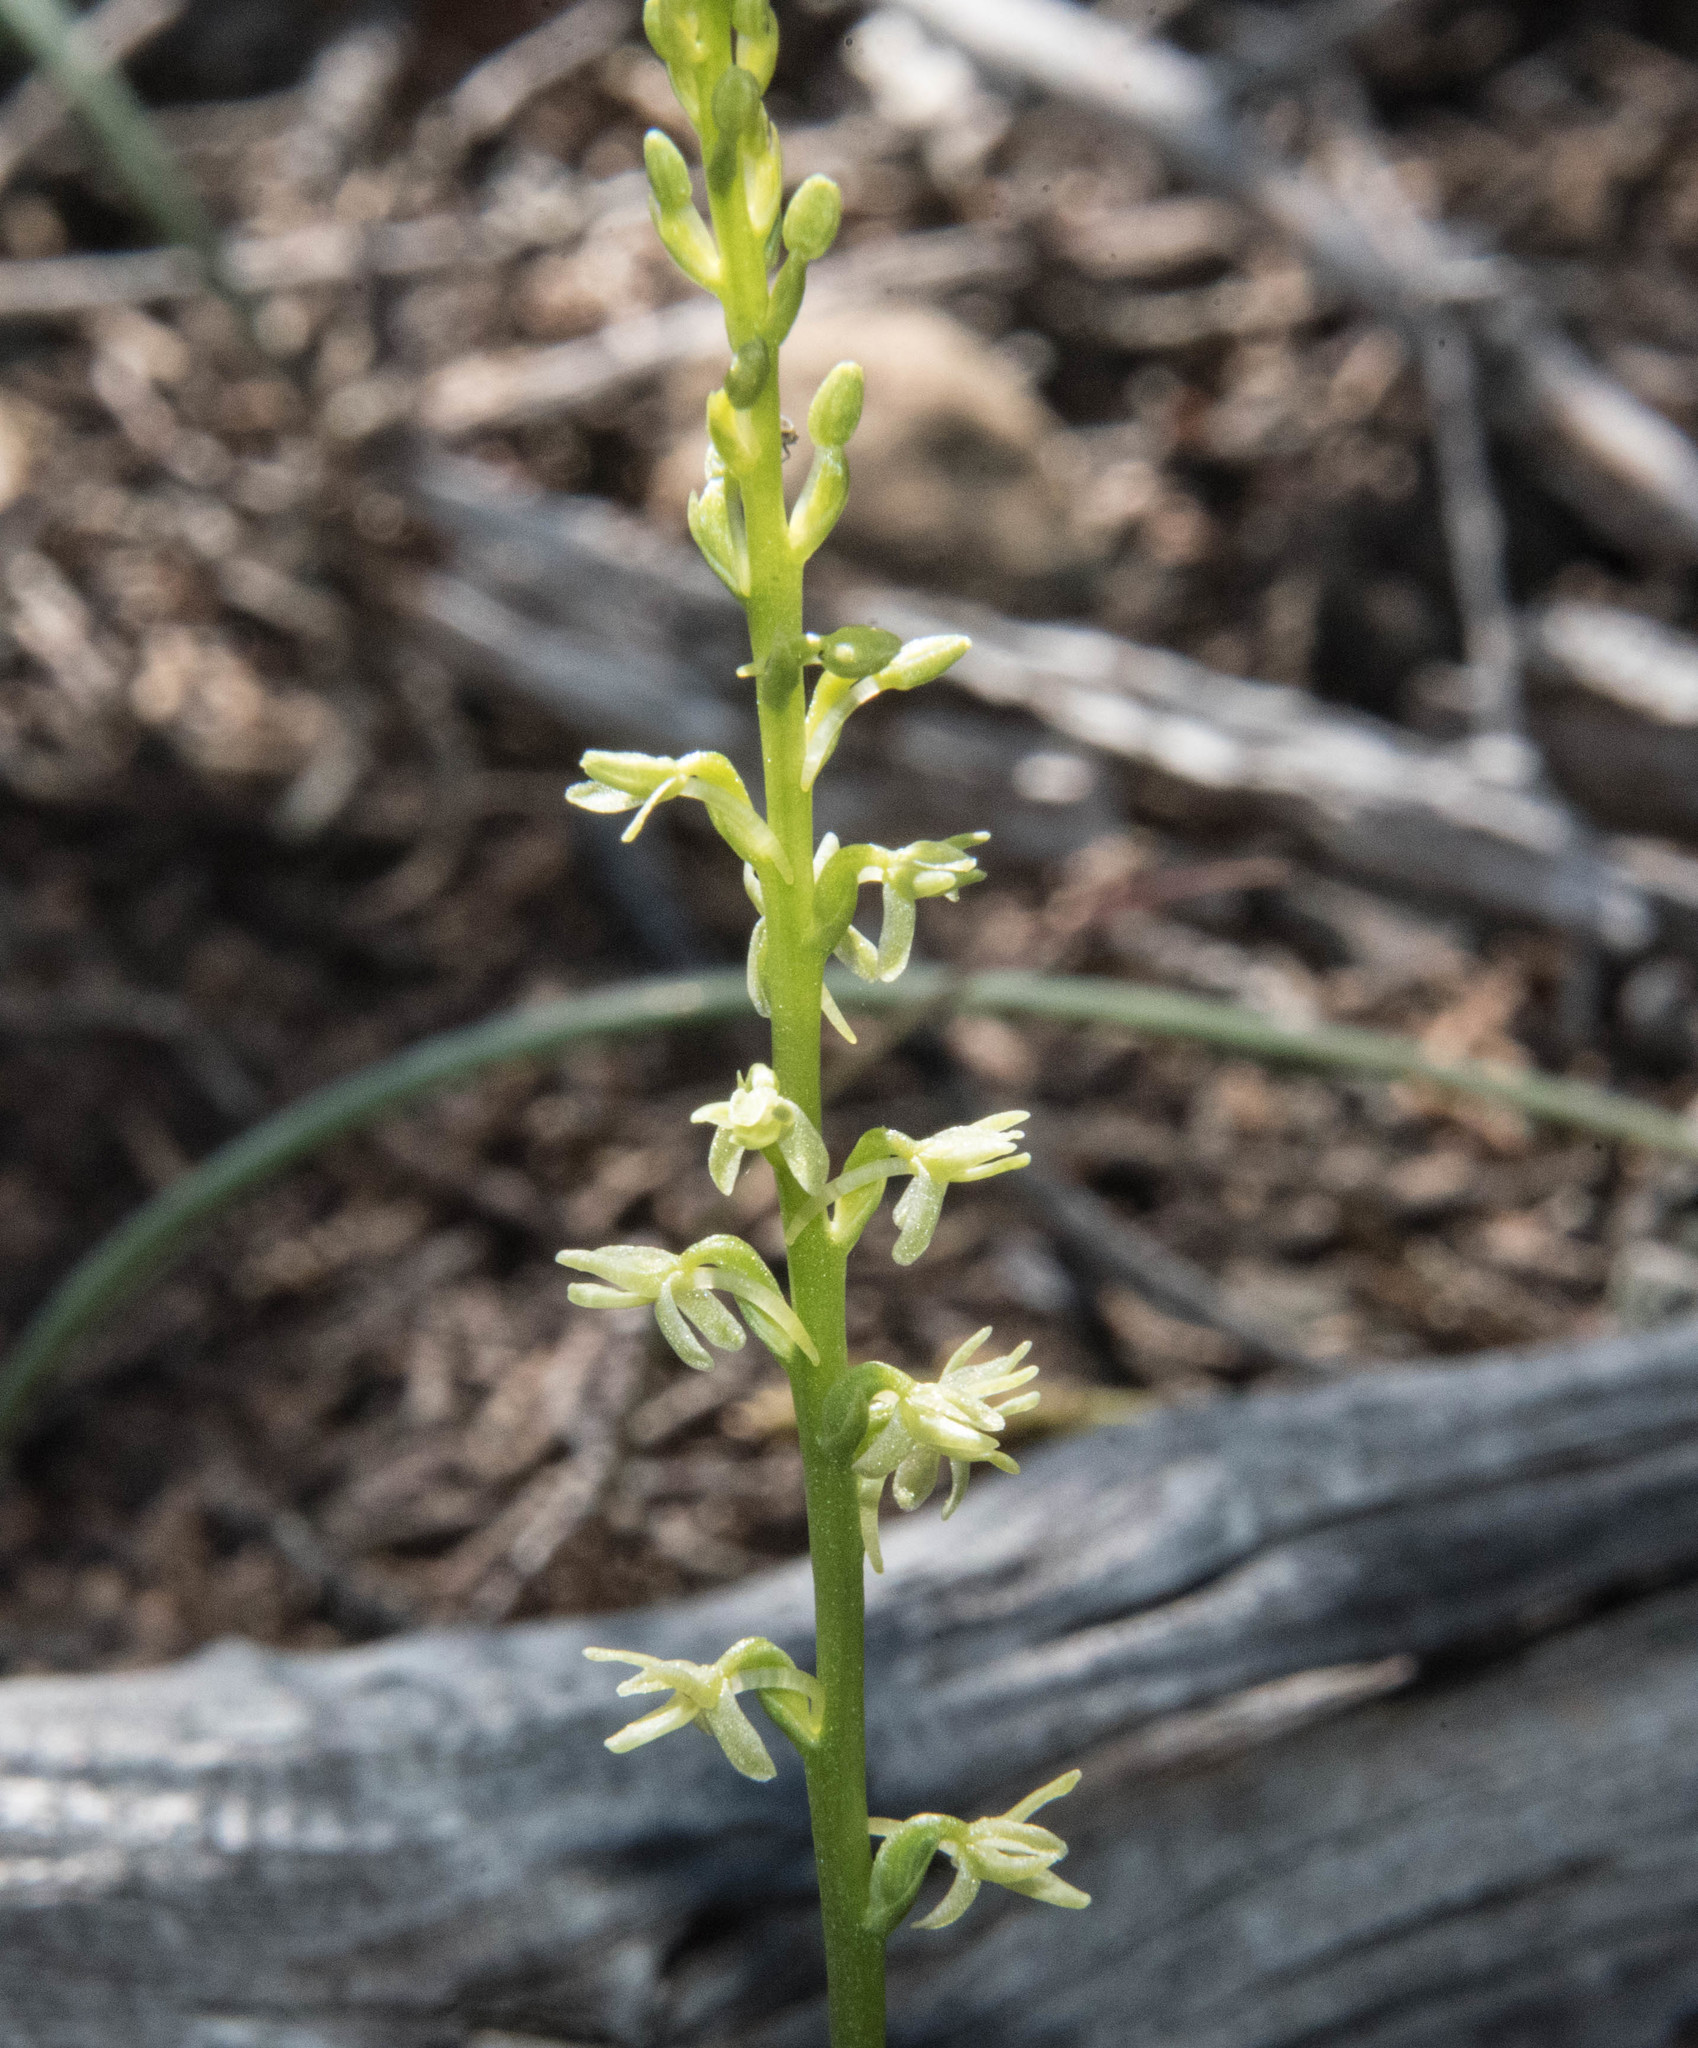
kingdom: Plantae
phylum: Tracheophyta
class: Liliopsida
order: Asparagales
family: Orchidaceae
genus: Platanthera
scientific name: Platanthera leptopetala
